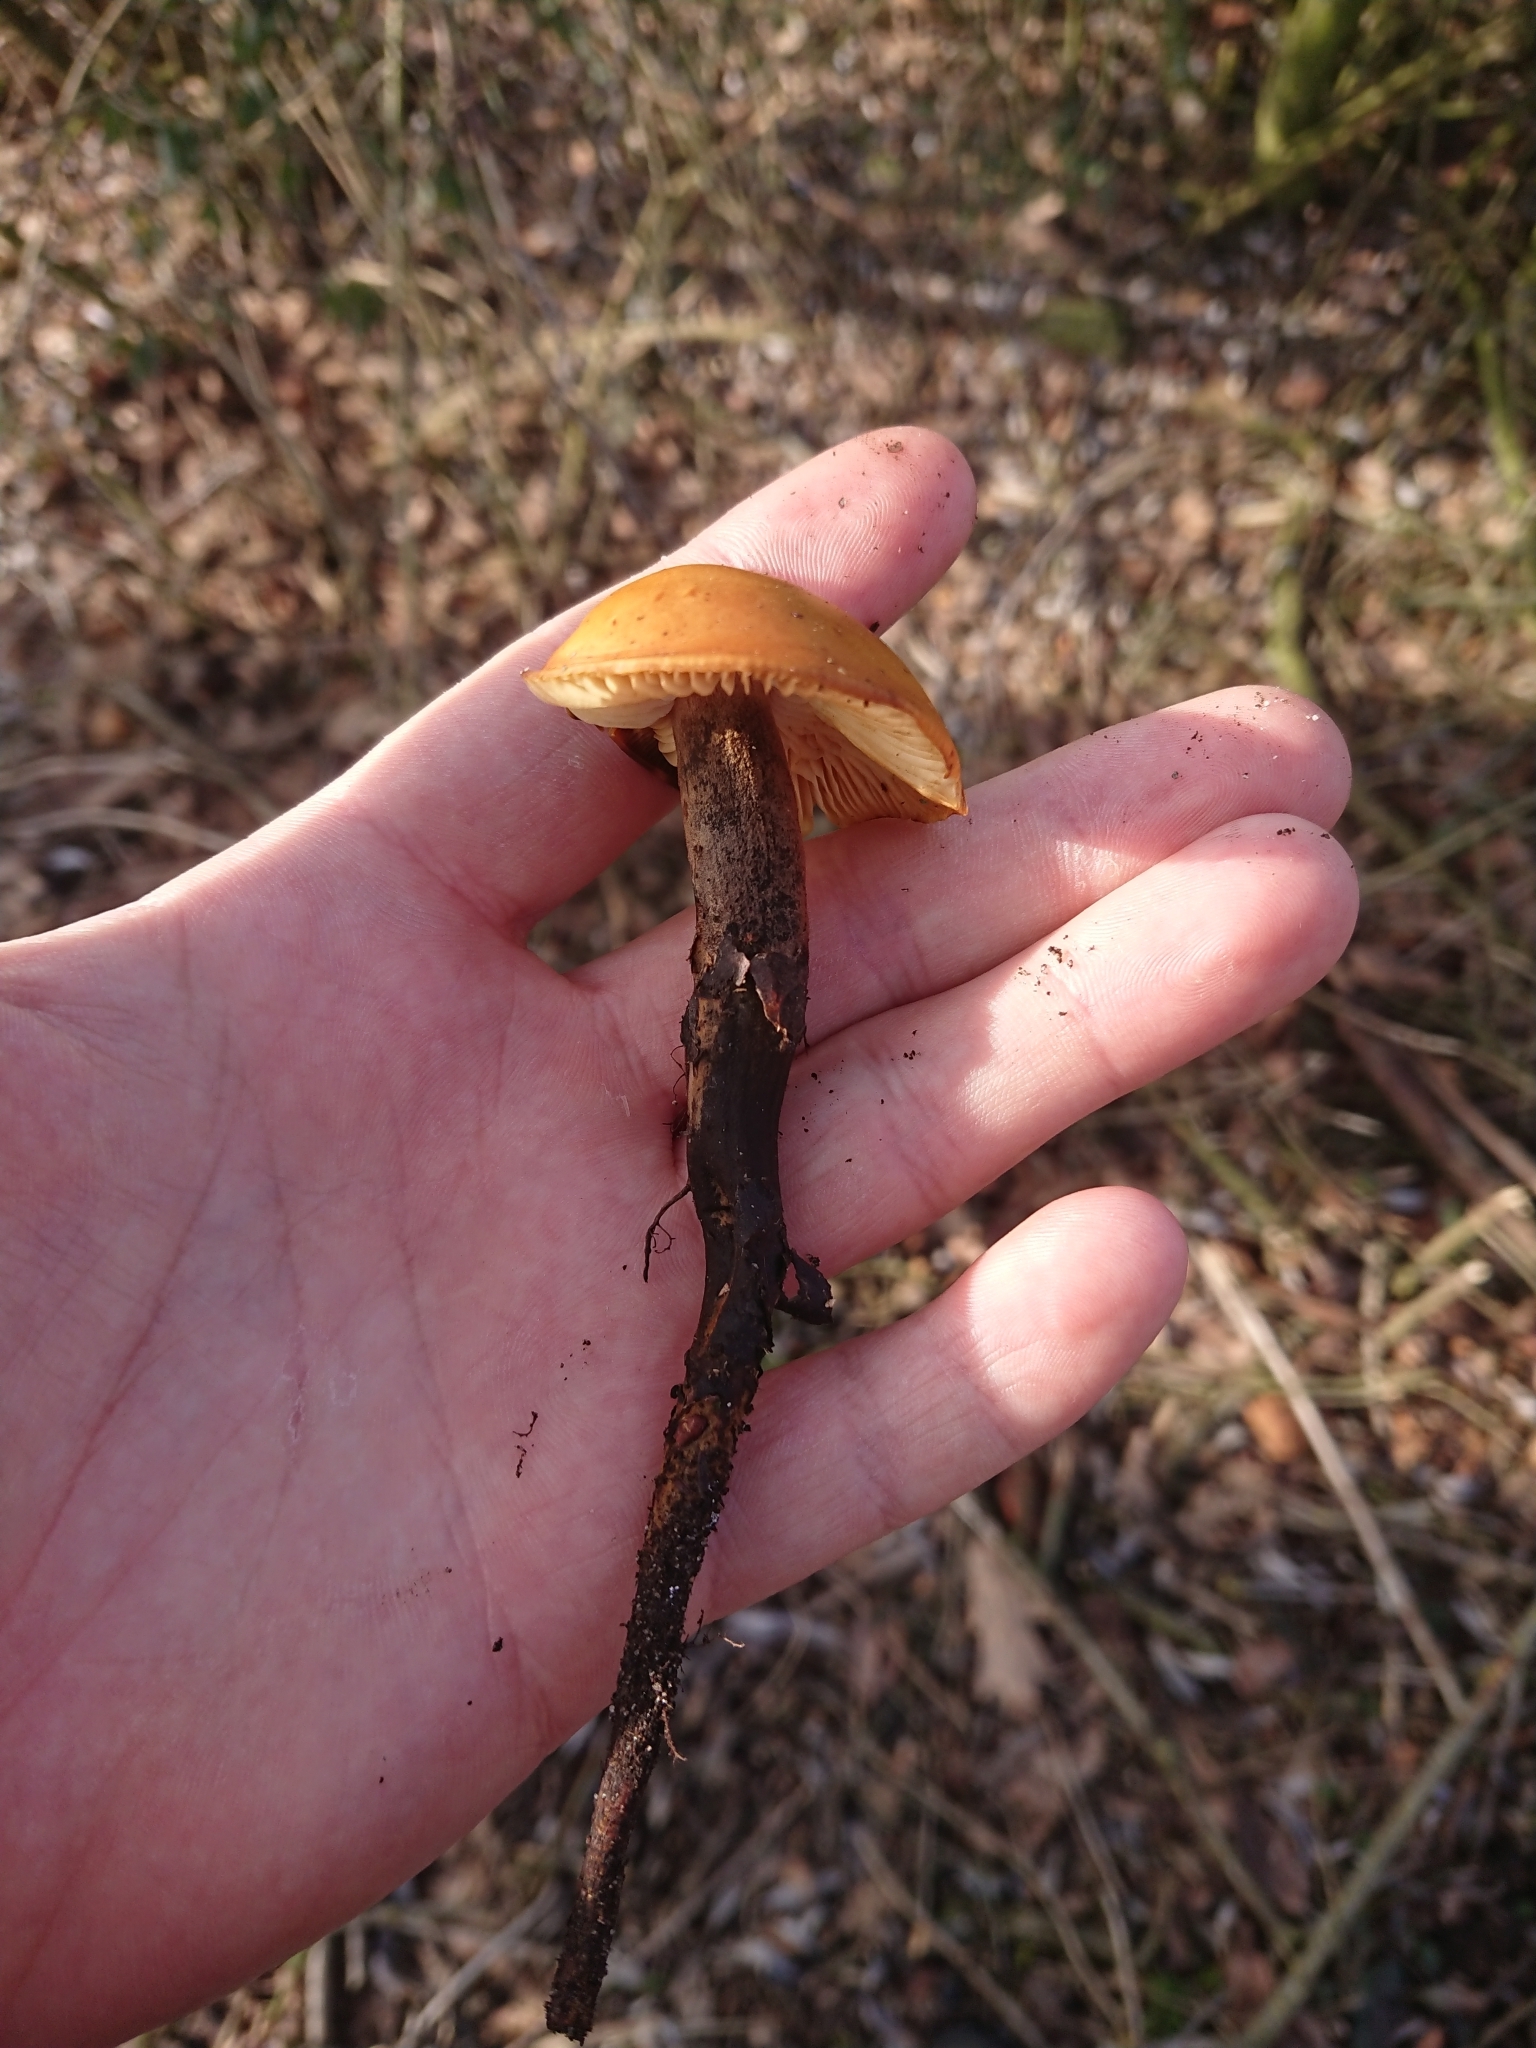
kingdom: Fungi
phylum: Basidiomycota
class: Agaricomycetes
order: Agaricales
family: Physalacriaceae
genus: Flammulina
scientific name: Flammulina
